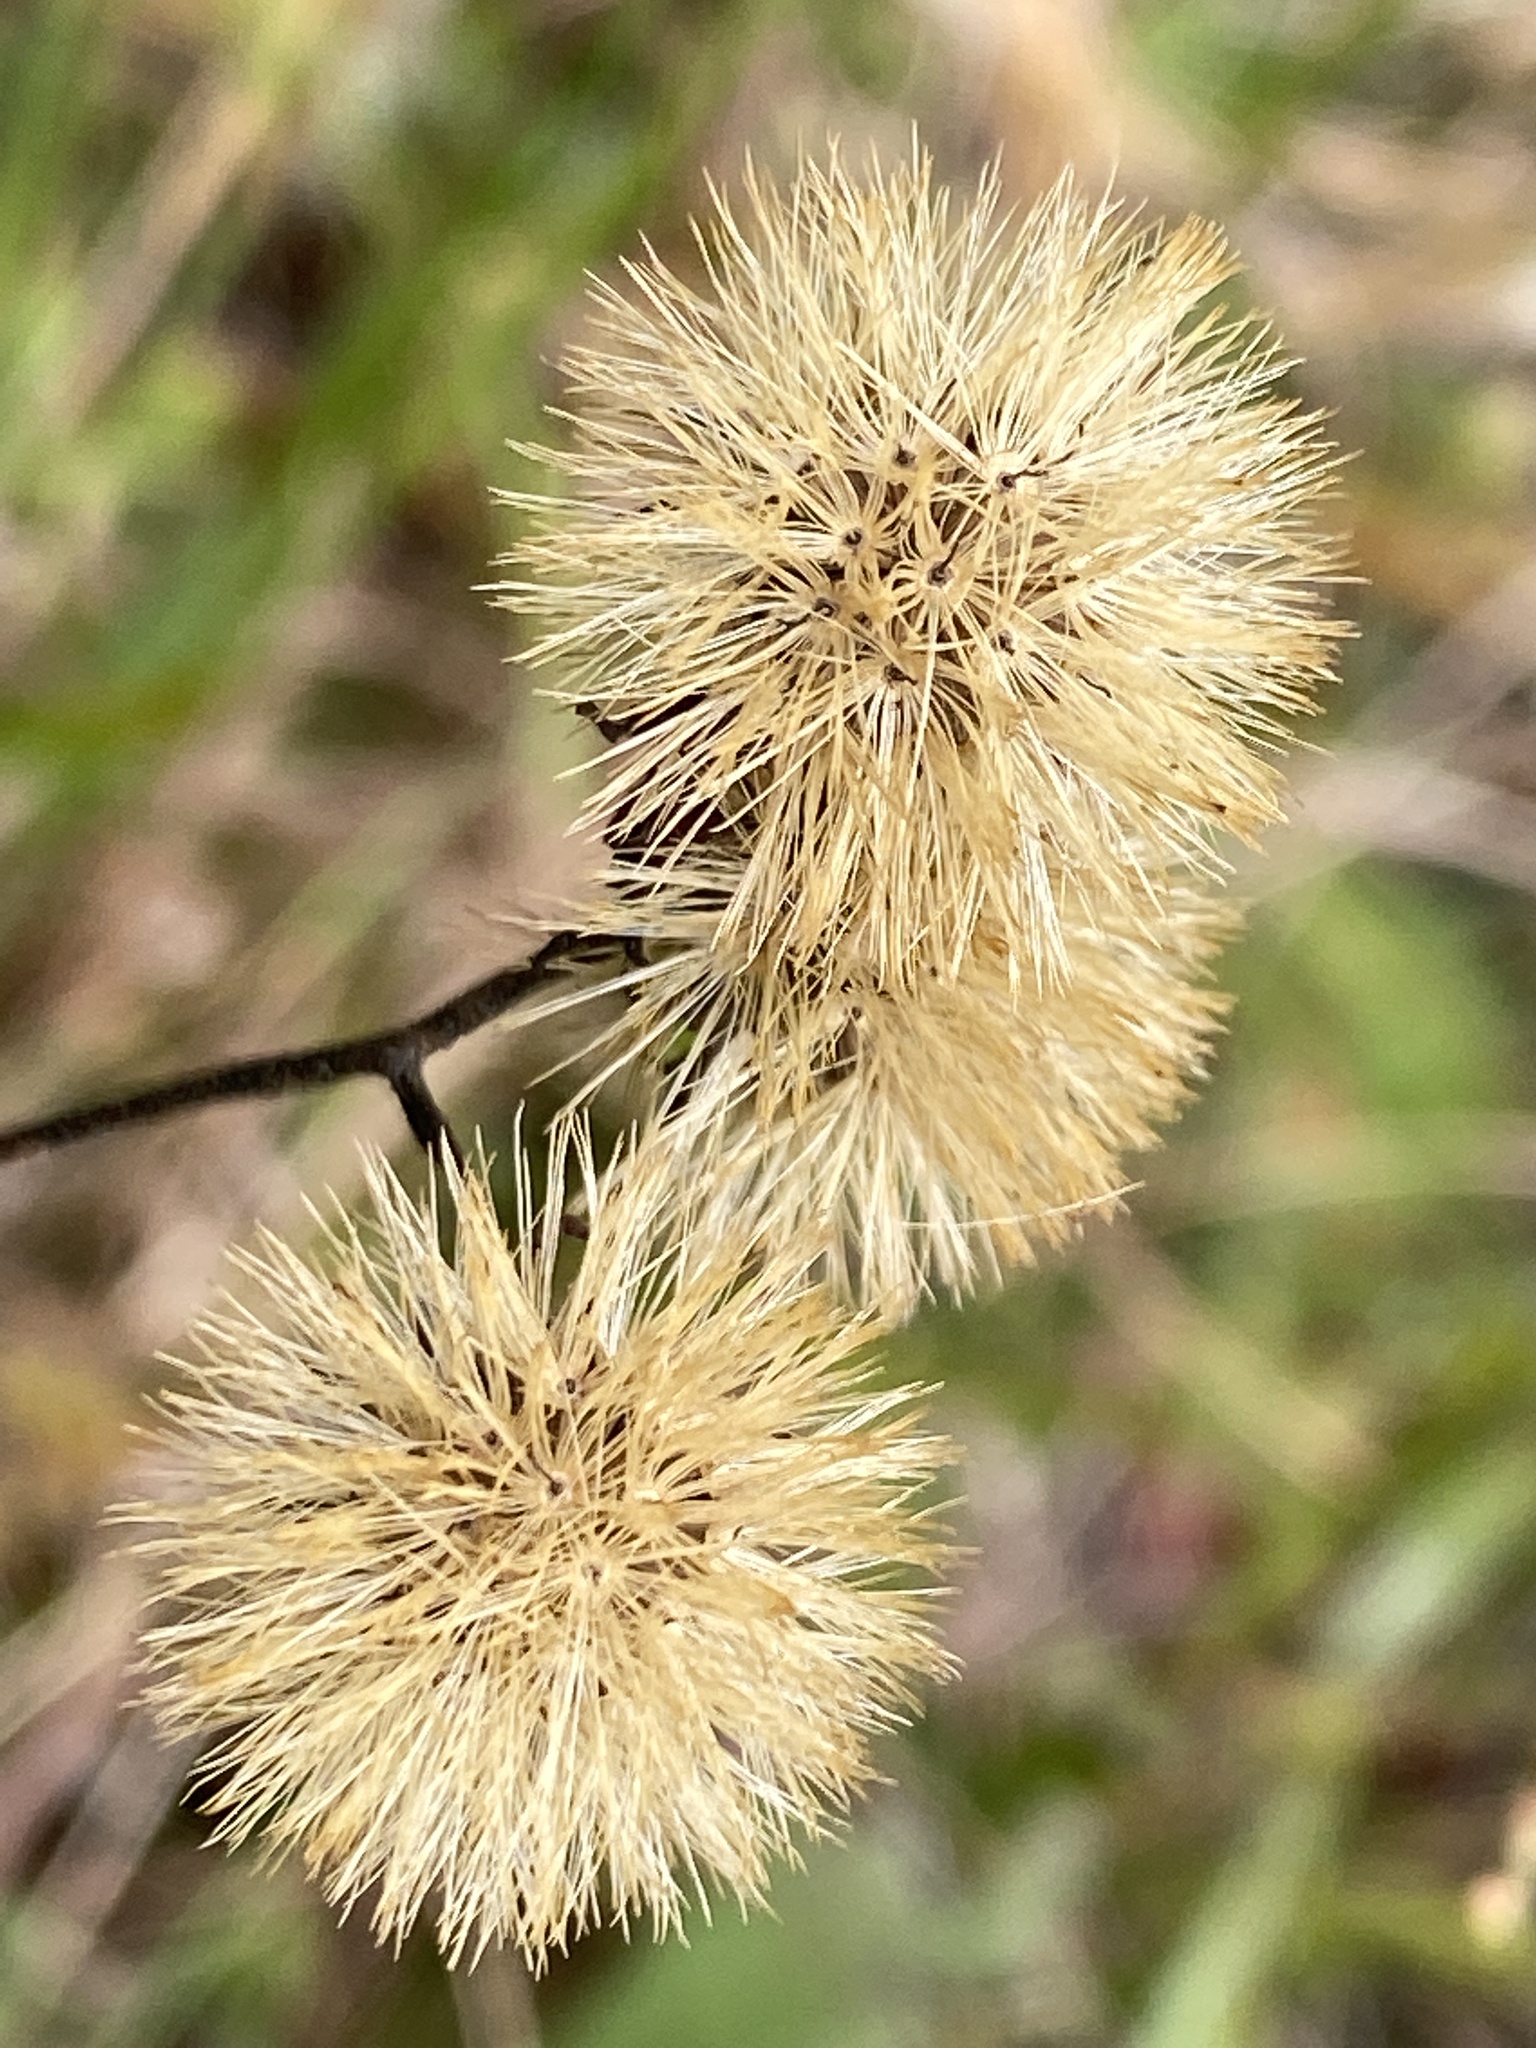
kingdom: Plantae
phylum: Tracheophyta
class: Magnoliopsida
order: Asterales
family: Asteraceae
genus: Vernonia
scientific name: Vernonia acaulis
